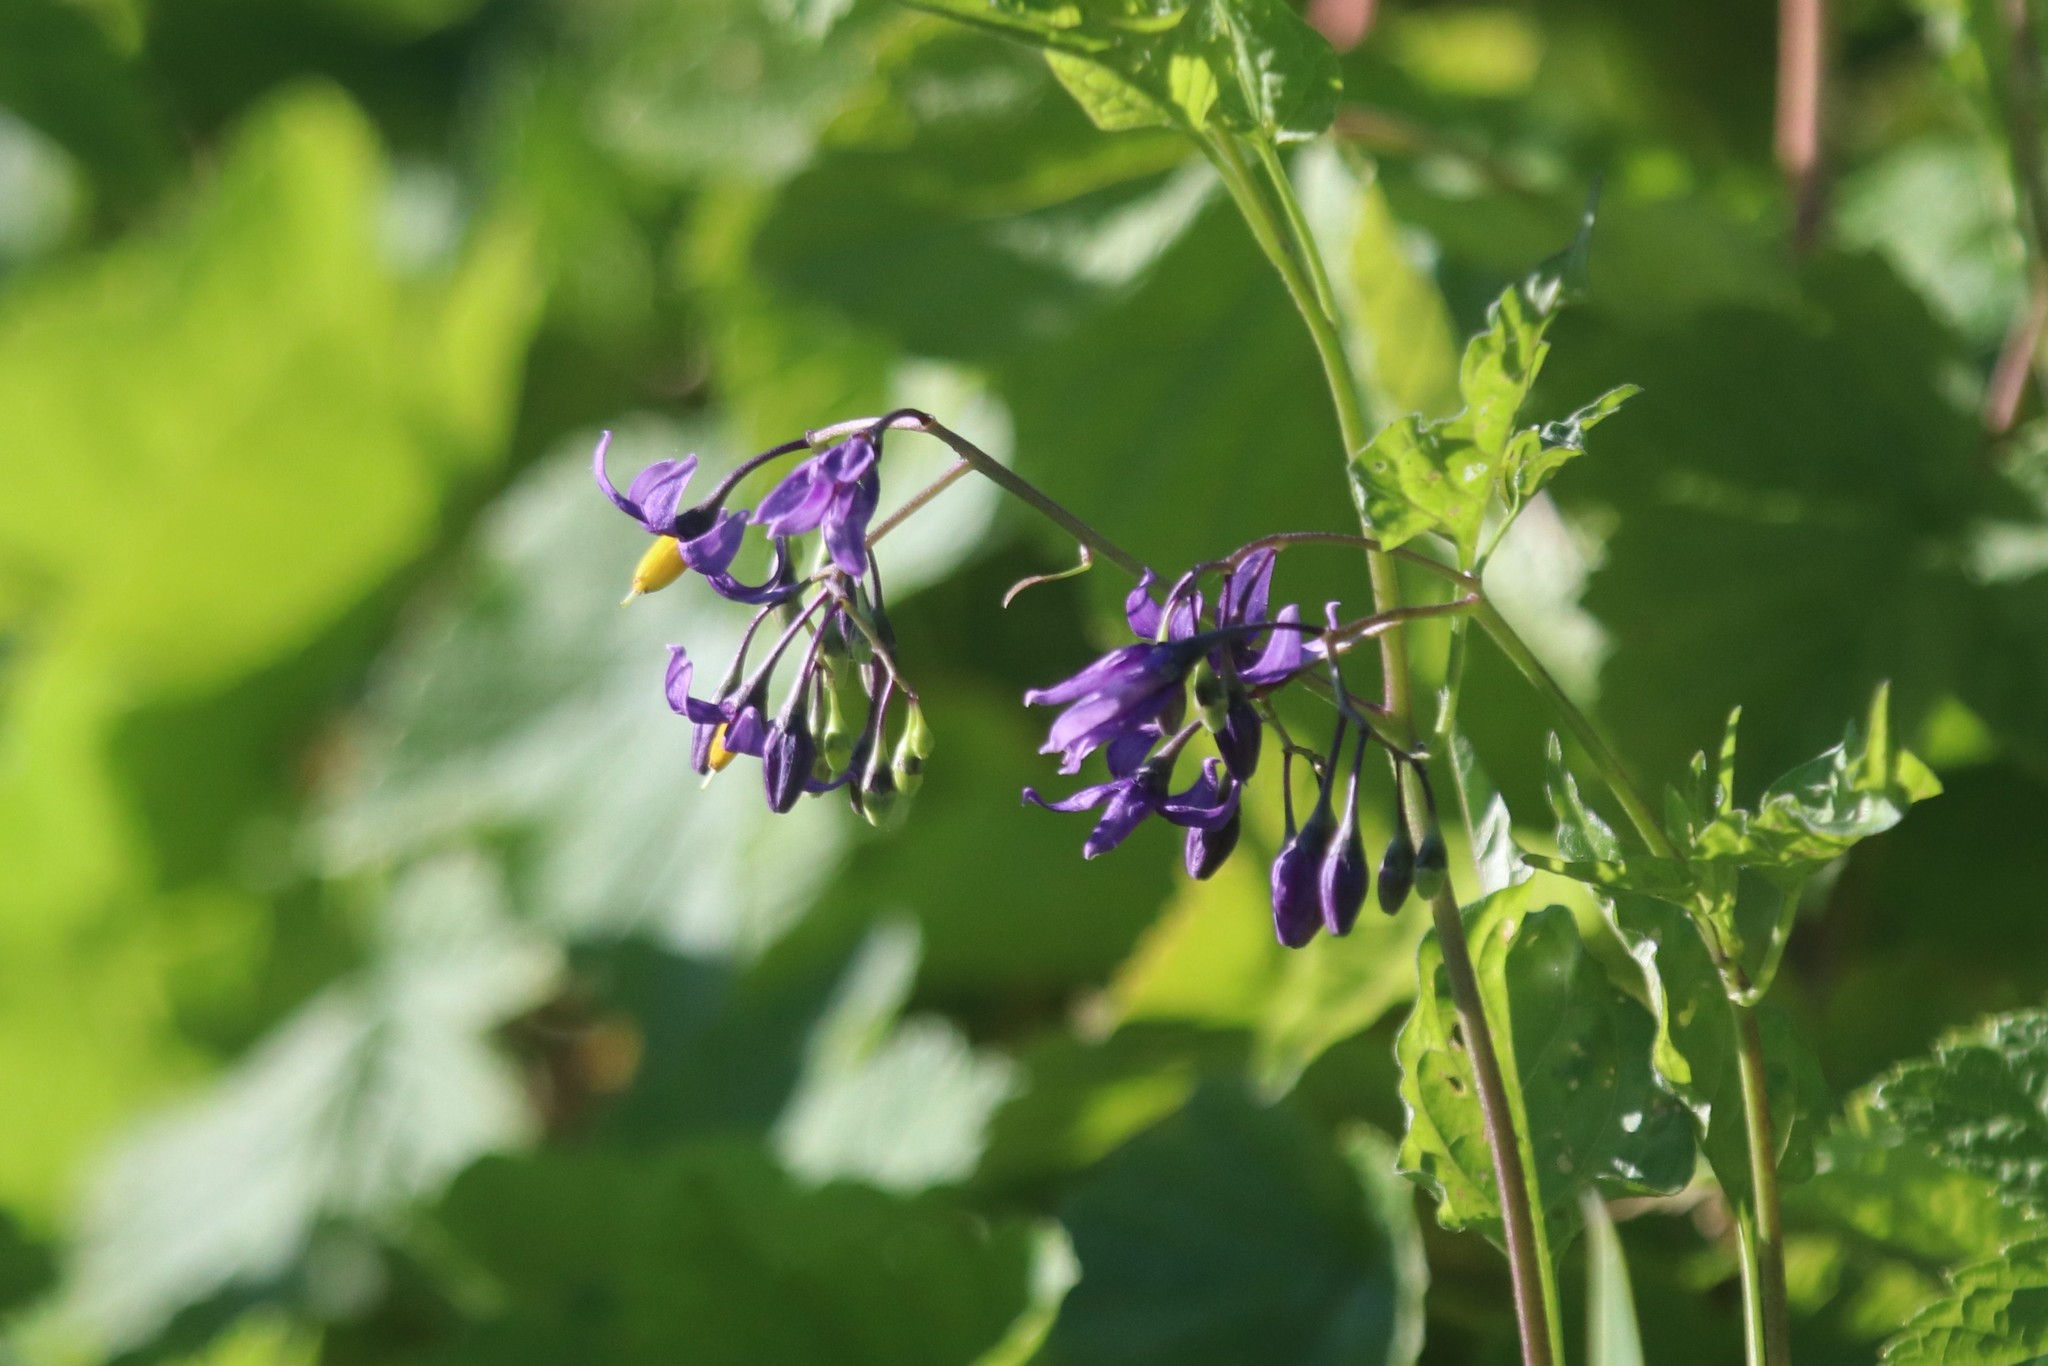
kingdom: Plantae
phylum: Tracheophyta
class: Magnoliopsida
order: Solanales
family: Solanaceae
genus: Solanum
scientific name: Solanum dulcamara
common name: Climbing nightshade
